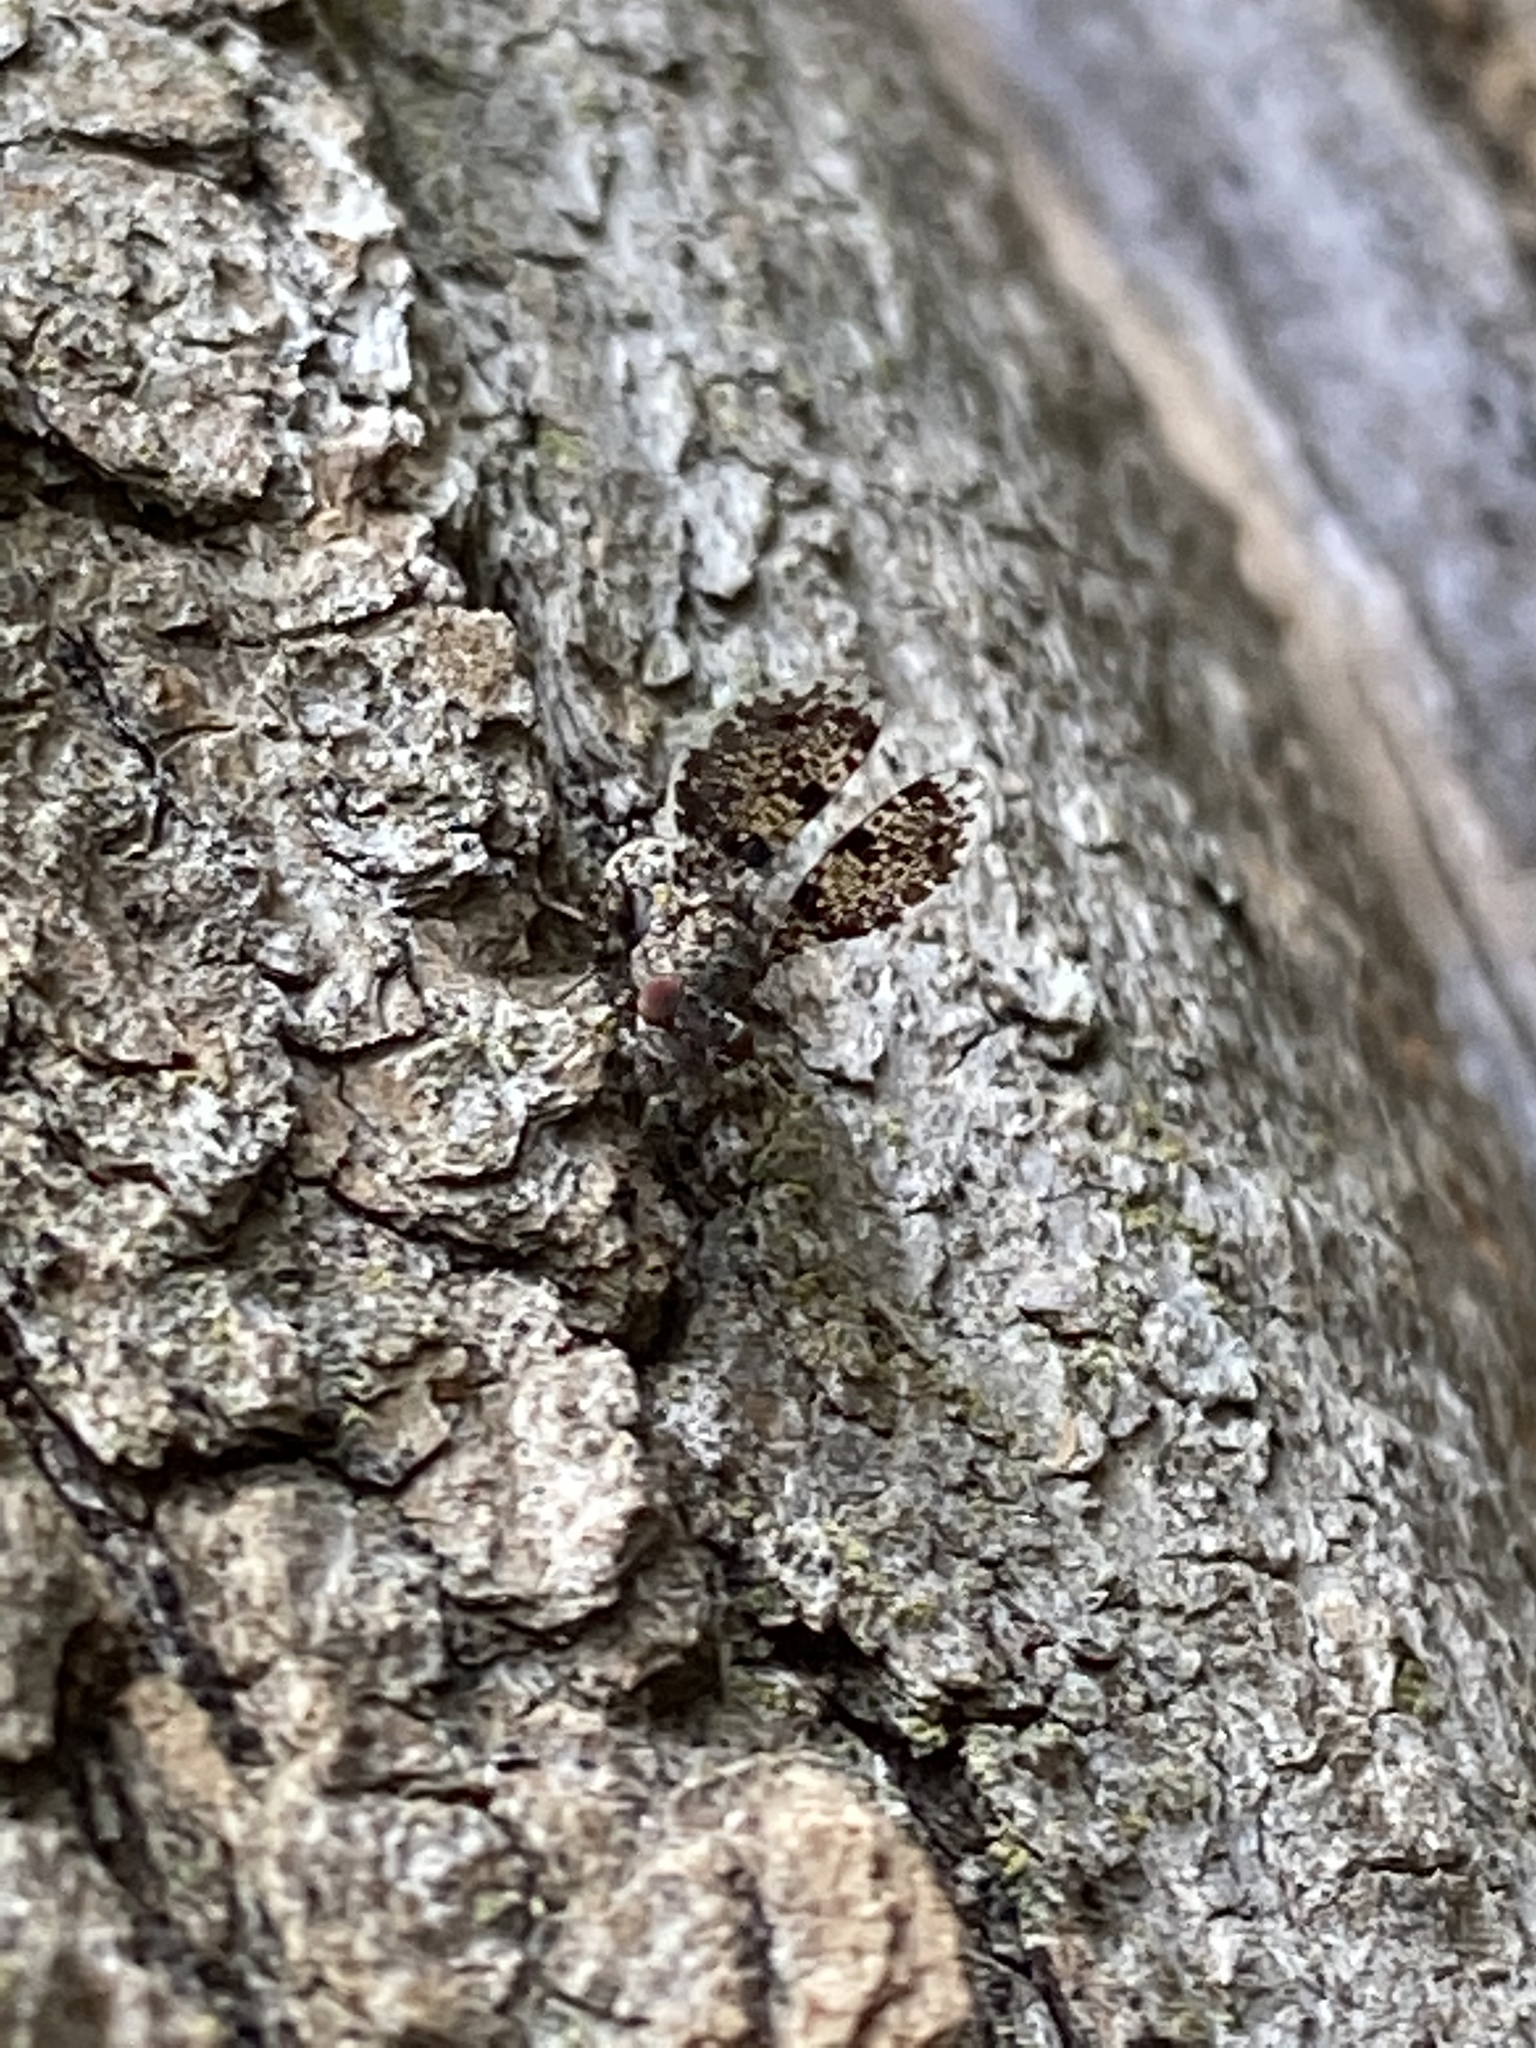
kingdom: Animalia
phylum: Arthropoda
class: Insecta
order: Diptera
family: Ulidiidae
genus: Callopistromyia
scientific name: Callopistromyia annulipes
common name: Peacock fly
